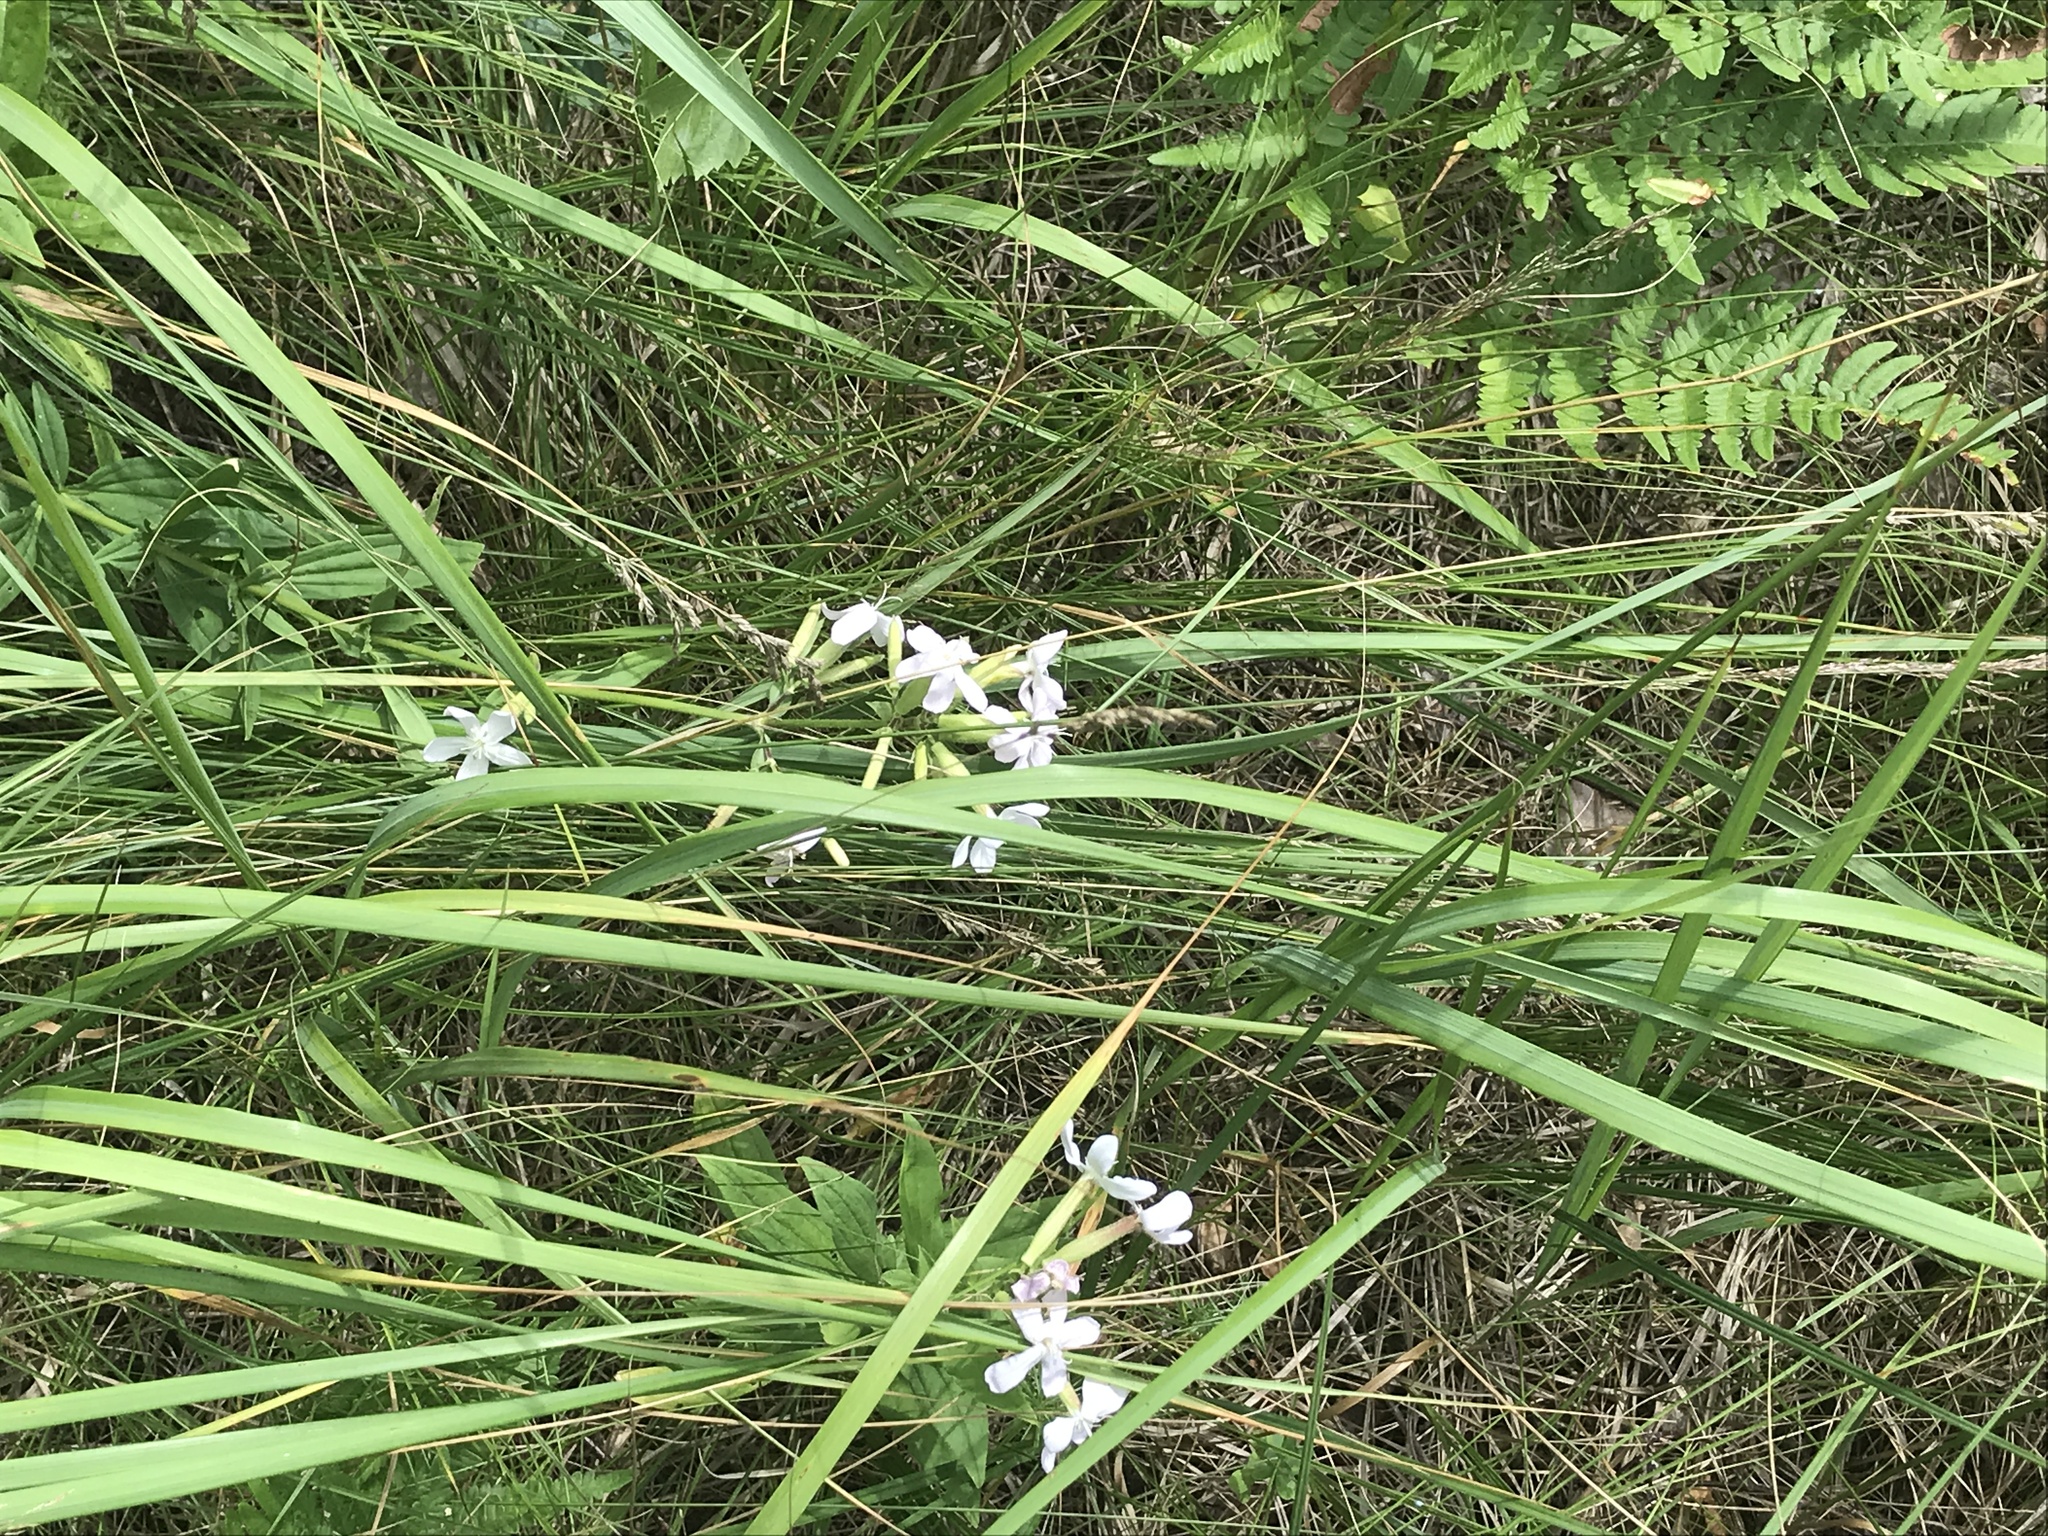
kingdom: Plantae
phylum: Tracheophyta
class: Magnoliopsida
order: Caryophyllales
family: Caryophyllaceae
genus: Saponaria
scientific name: Saponaria officinalis
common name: Soapwort
